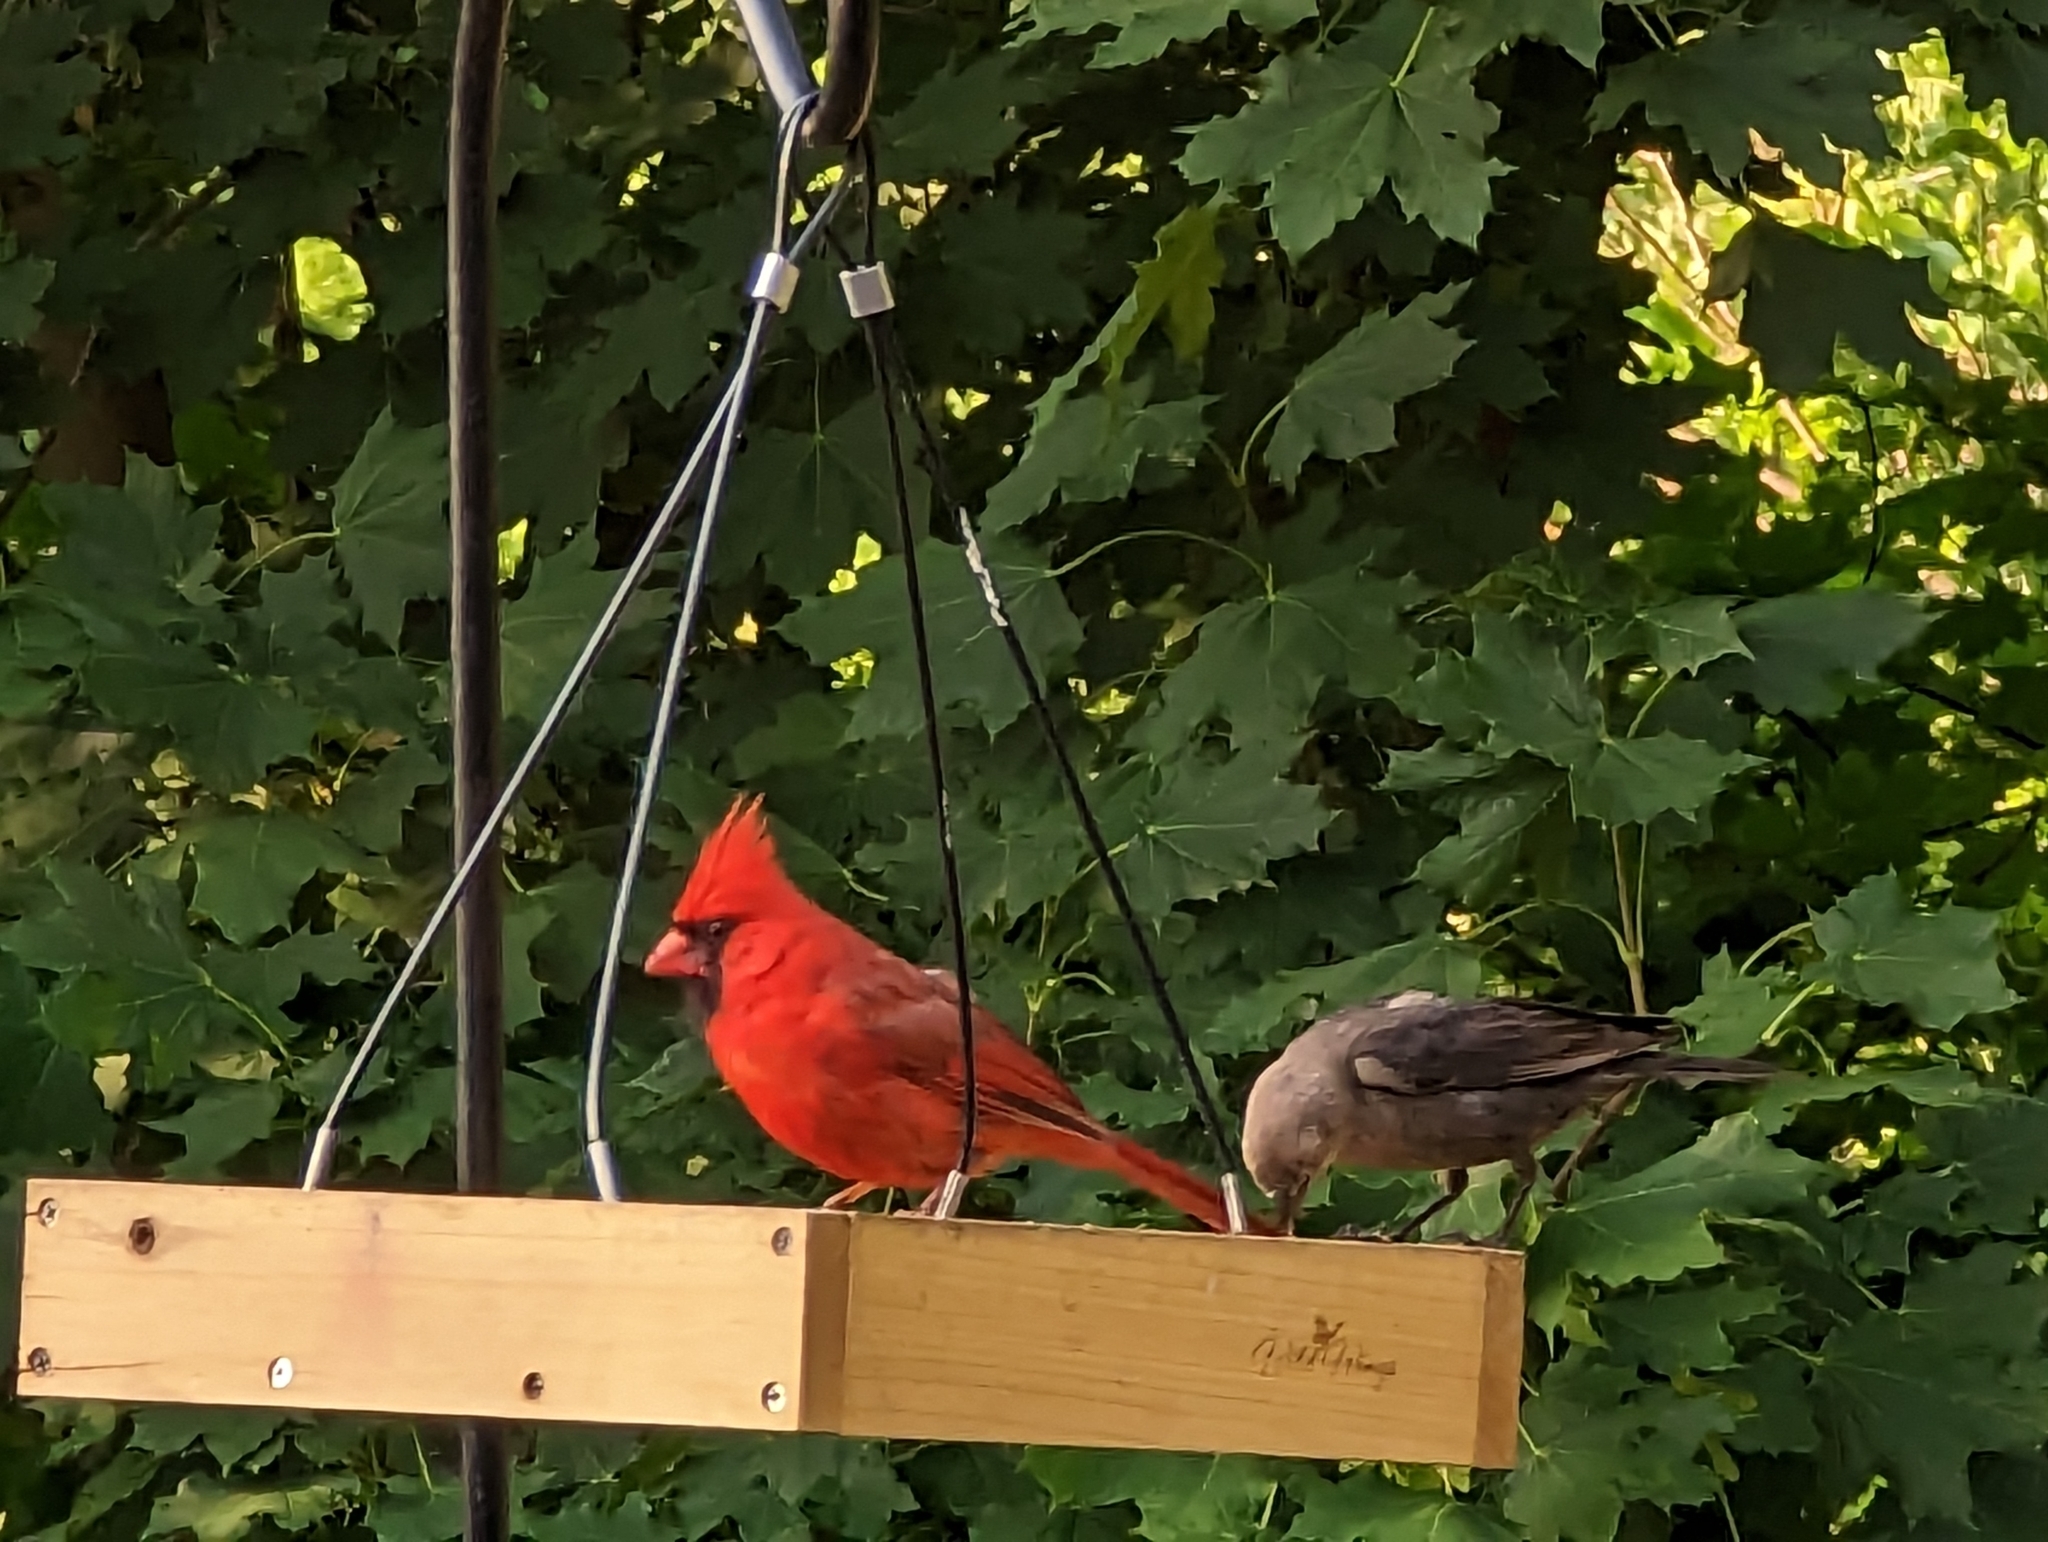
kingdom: Animalia
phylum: Chordata
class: Aves
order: Passeriformes
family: Icteridae
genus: Molothrus
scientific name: Molothrus ater
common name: Brown-headed cowbird
